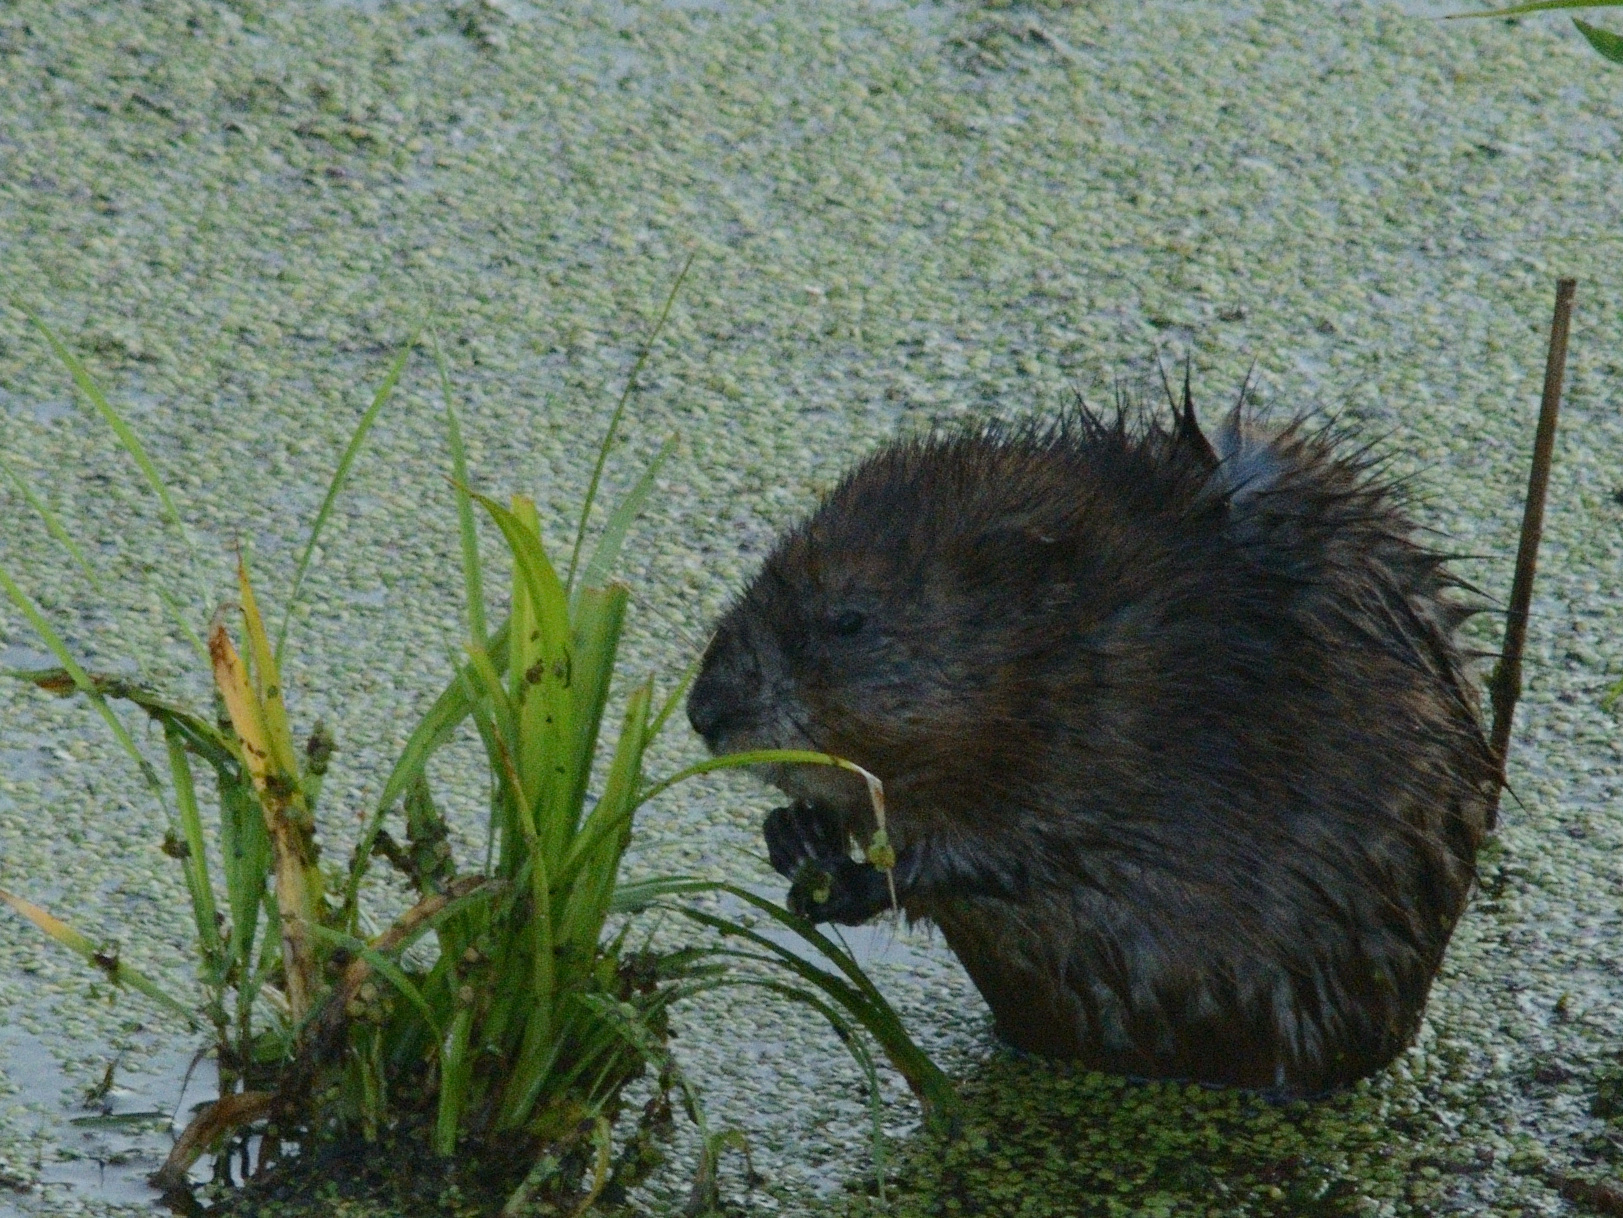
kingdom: Animalia
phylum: Chordata
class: Mammalia
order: Rodentia
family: Cricetidae
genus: Ondatra
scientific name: Ondatra zibethicus
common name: Muskrat
